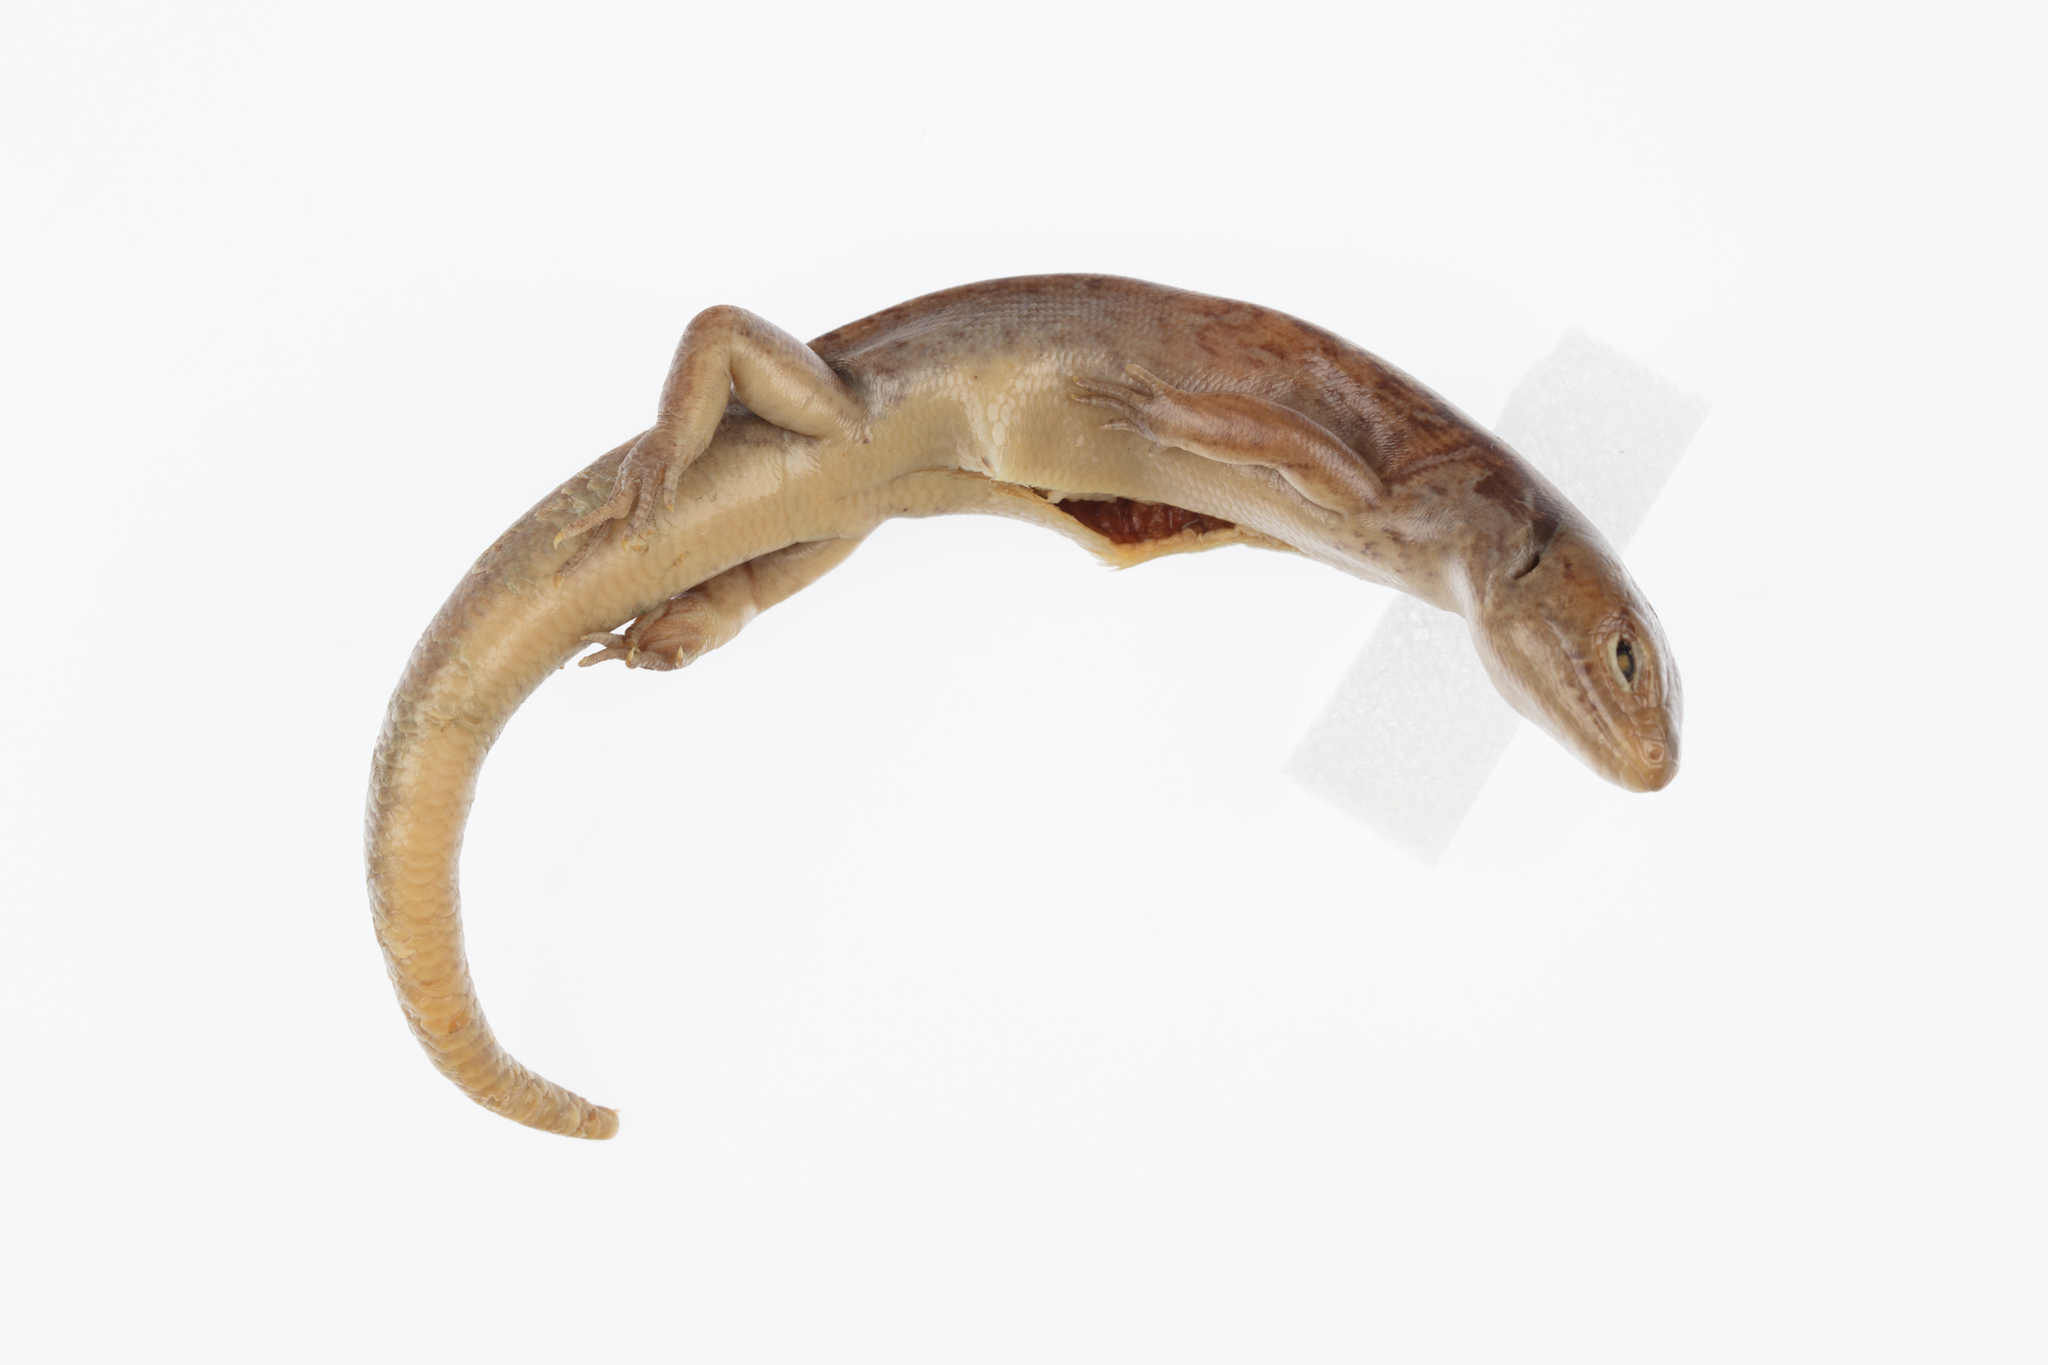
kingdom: Animalia
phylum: Chordata
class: Squamata
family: Scincidae
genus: Oligosoma
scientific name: Oligosoma macgregori
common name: Macgregor's skink
